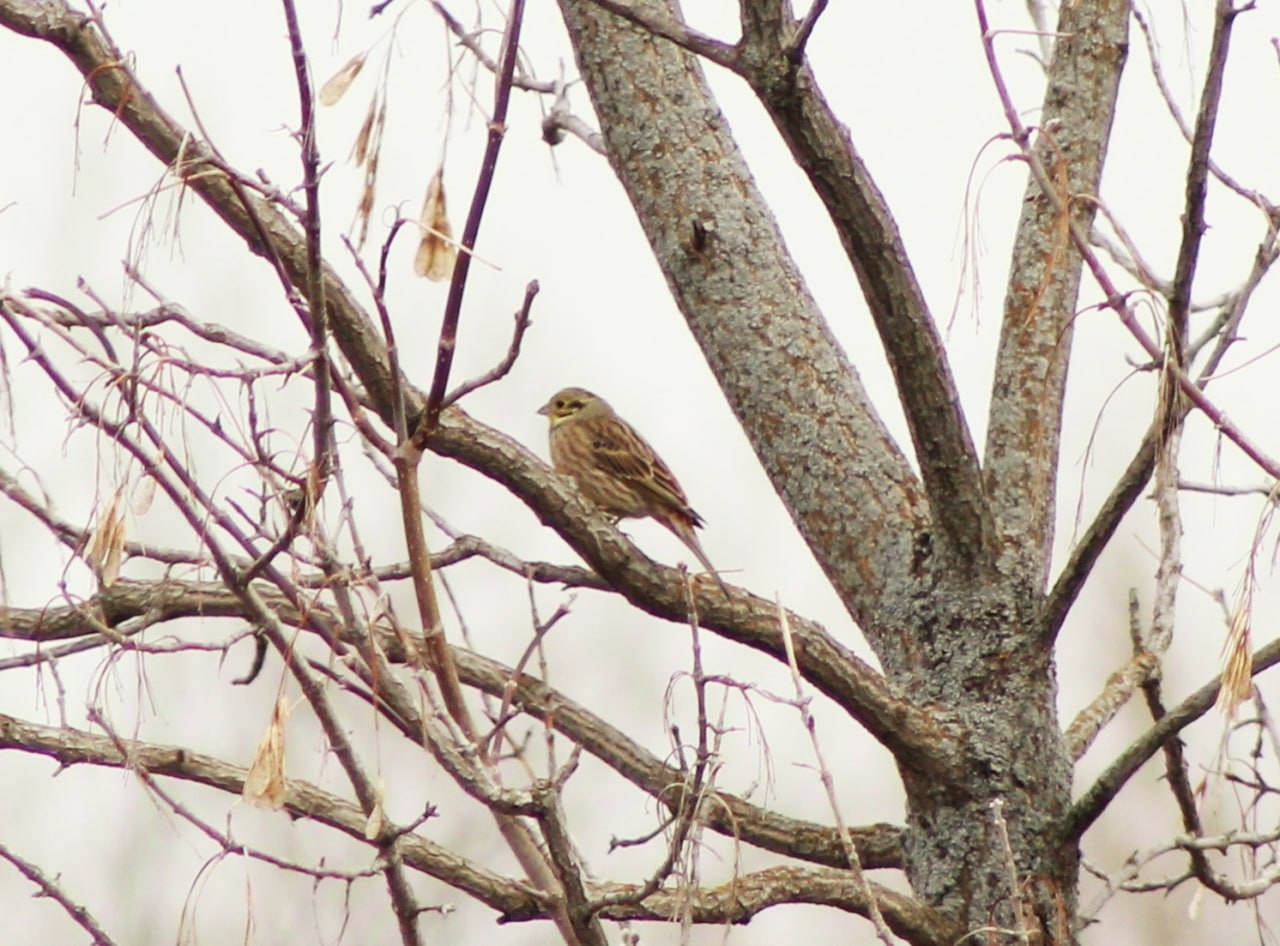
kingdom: Animalia
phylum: Chordata
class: Aves
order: Passeriformes
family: Emberizidae
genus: Emberiza
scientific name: Emberiza citrinella
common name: Yellowhammer
